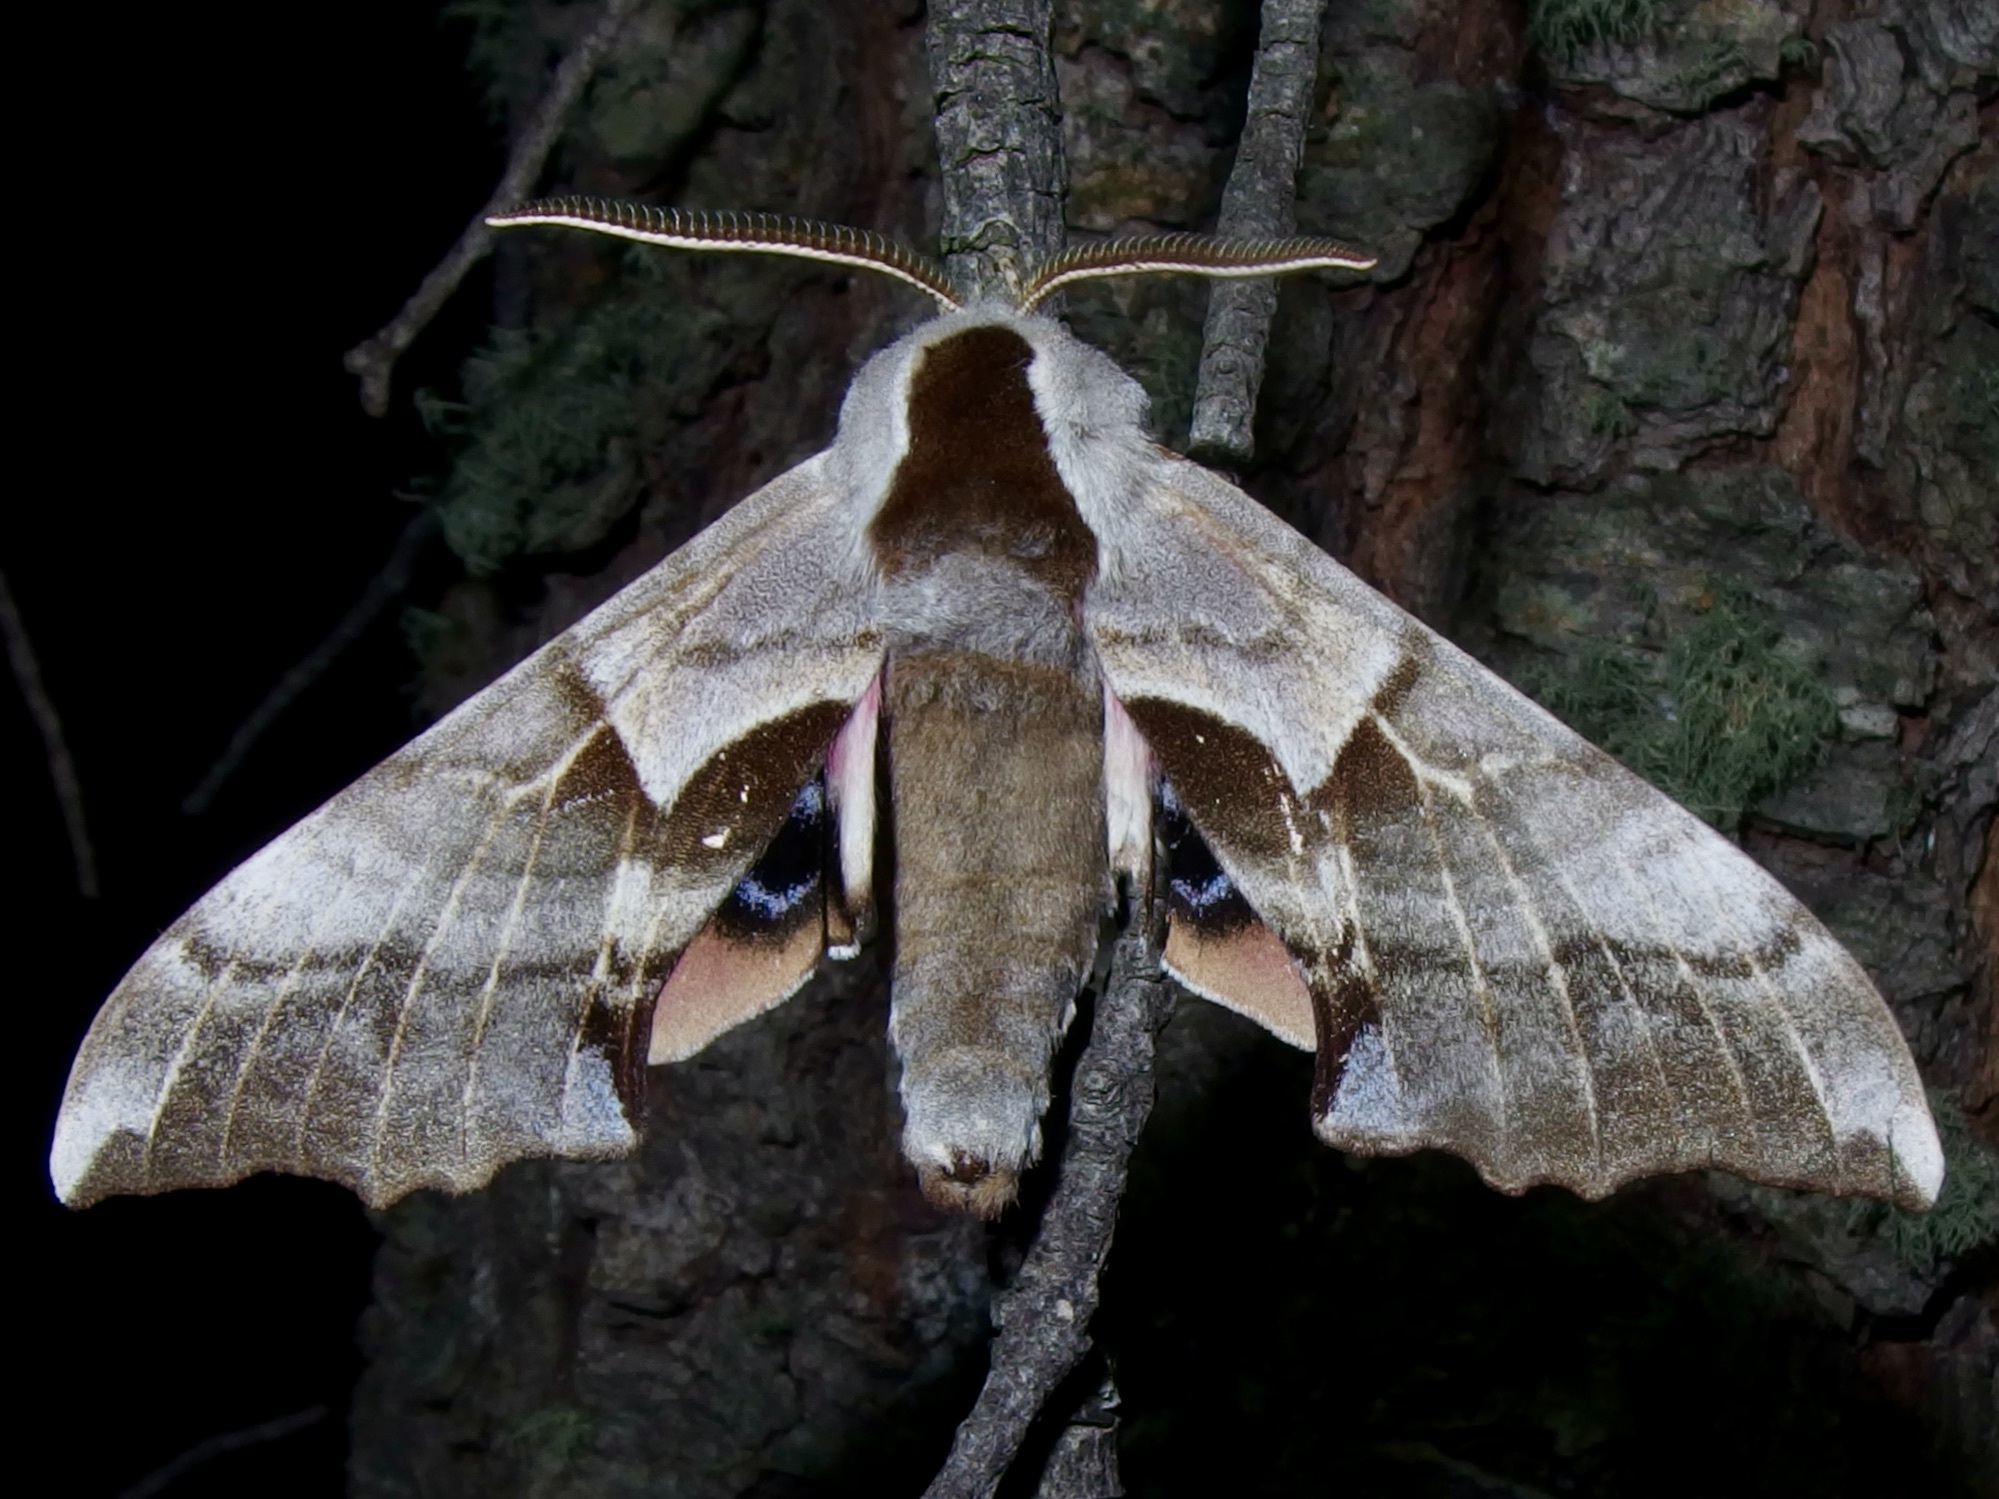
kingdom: Animalia
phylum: Arthropoda
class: Insecta
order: Lepidoptera
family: Sphingidae
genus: Smerinthus
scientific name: Smerinthus cerisyi
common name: Cerisy's sphinx moth
